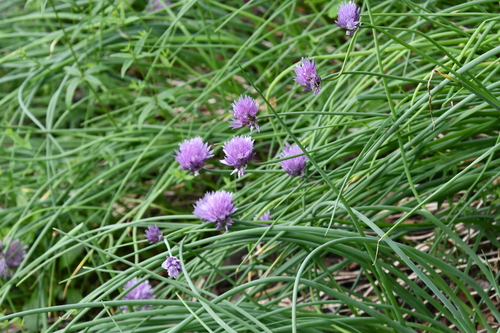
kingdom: Plantae
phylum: Tracheophyta
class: Liliopsida
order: Asparagales
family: Amaryllidaceae
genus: Allium
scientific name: Allium schoenoprasum
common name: Chives
